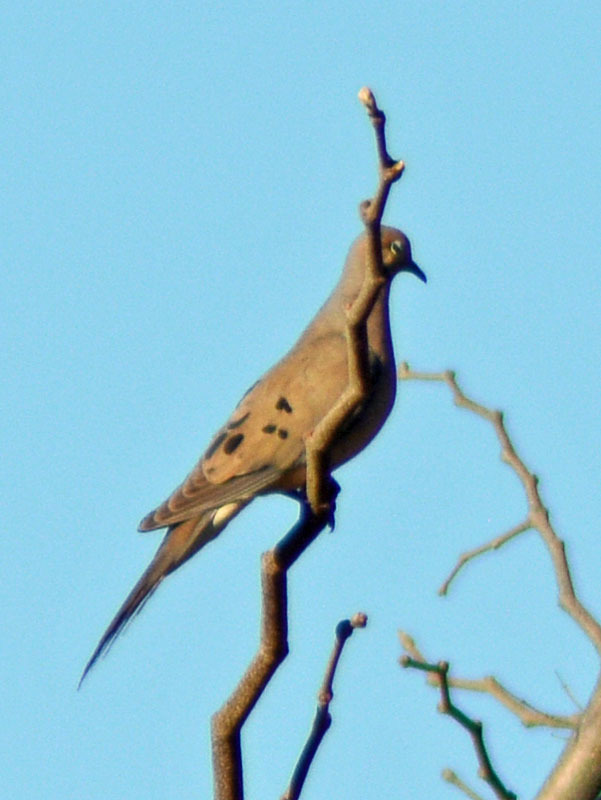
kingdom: Animalia
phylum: Chordata
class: Aves
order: Columbiformes
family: Columbidae
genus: Zenaida
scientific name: Zenaida macroura
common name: Mourning dove
